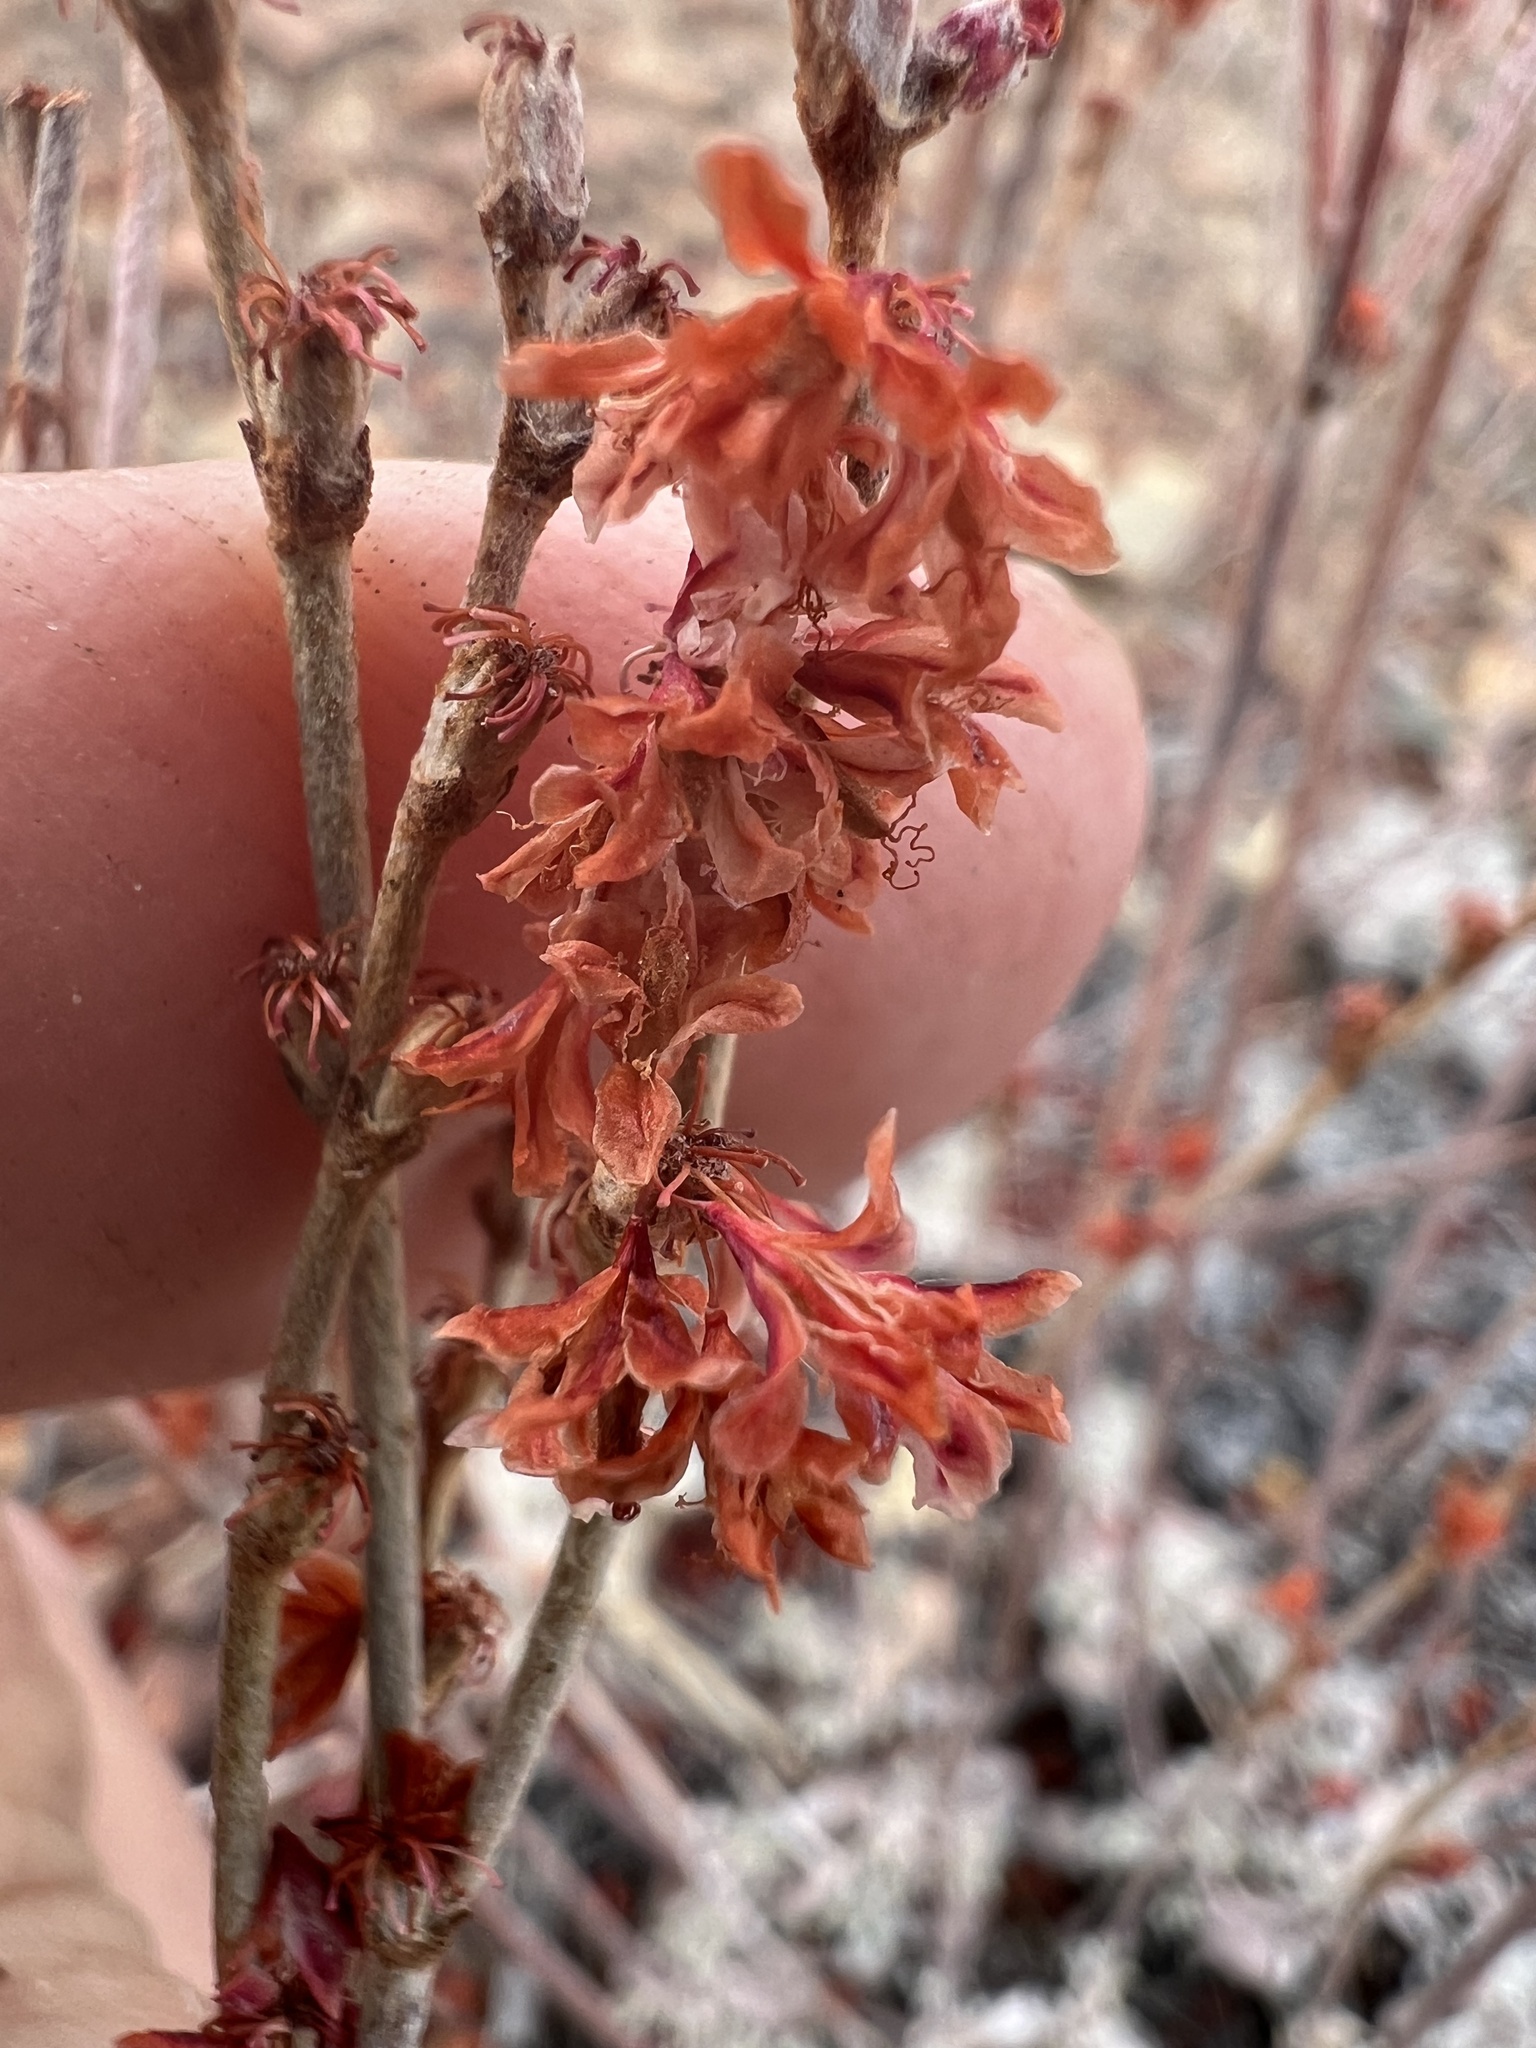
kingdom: Plantae
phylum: Tracheophyta
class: Magnoliopsida
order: Caryophyllales
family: Polygonaceae
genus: Eriogonum
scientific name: Eriogonum wrightii
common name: Bastard-sage
